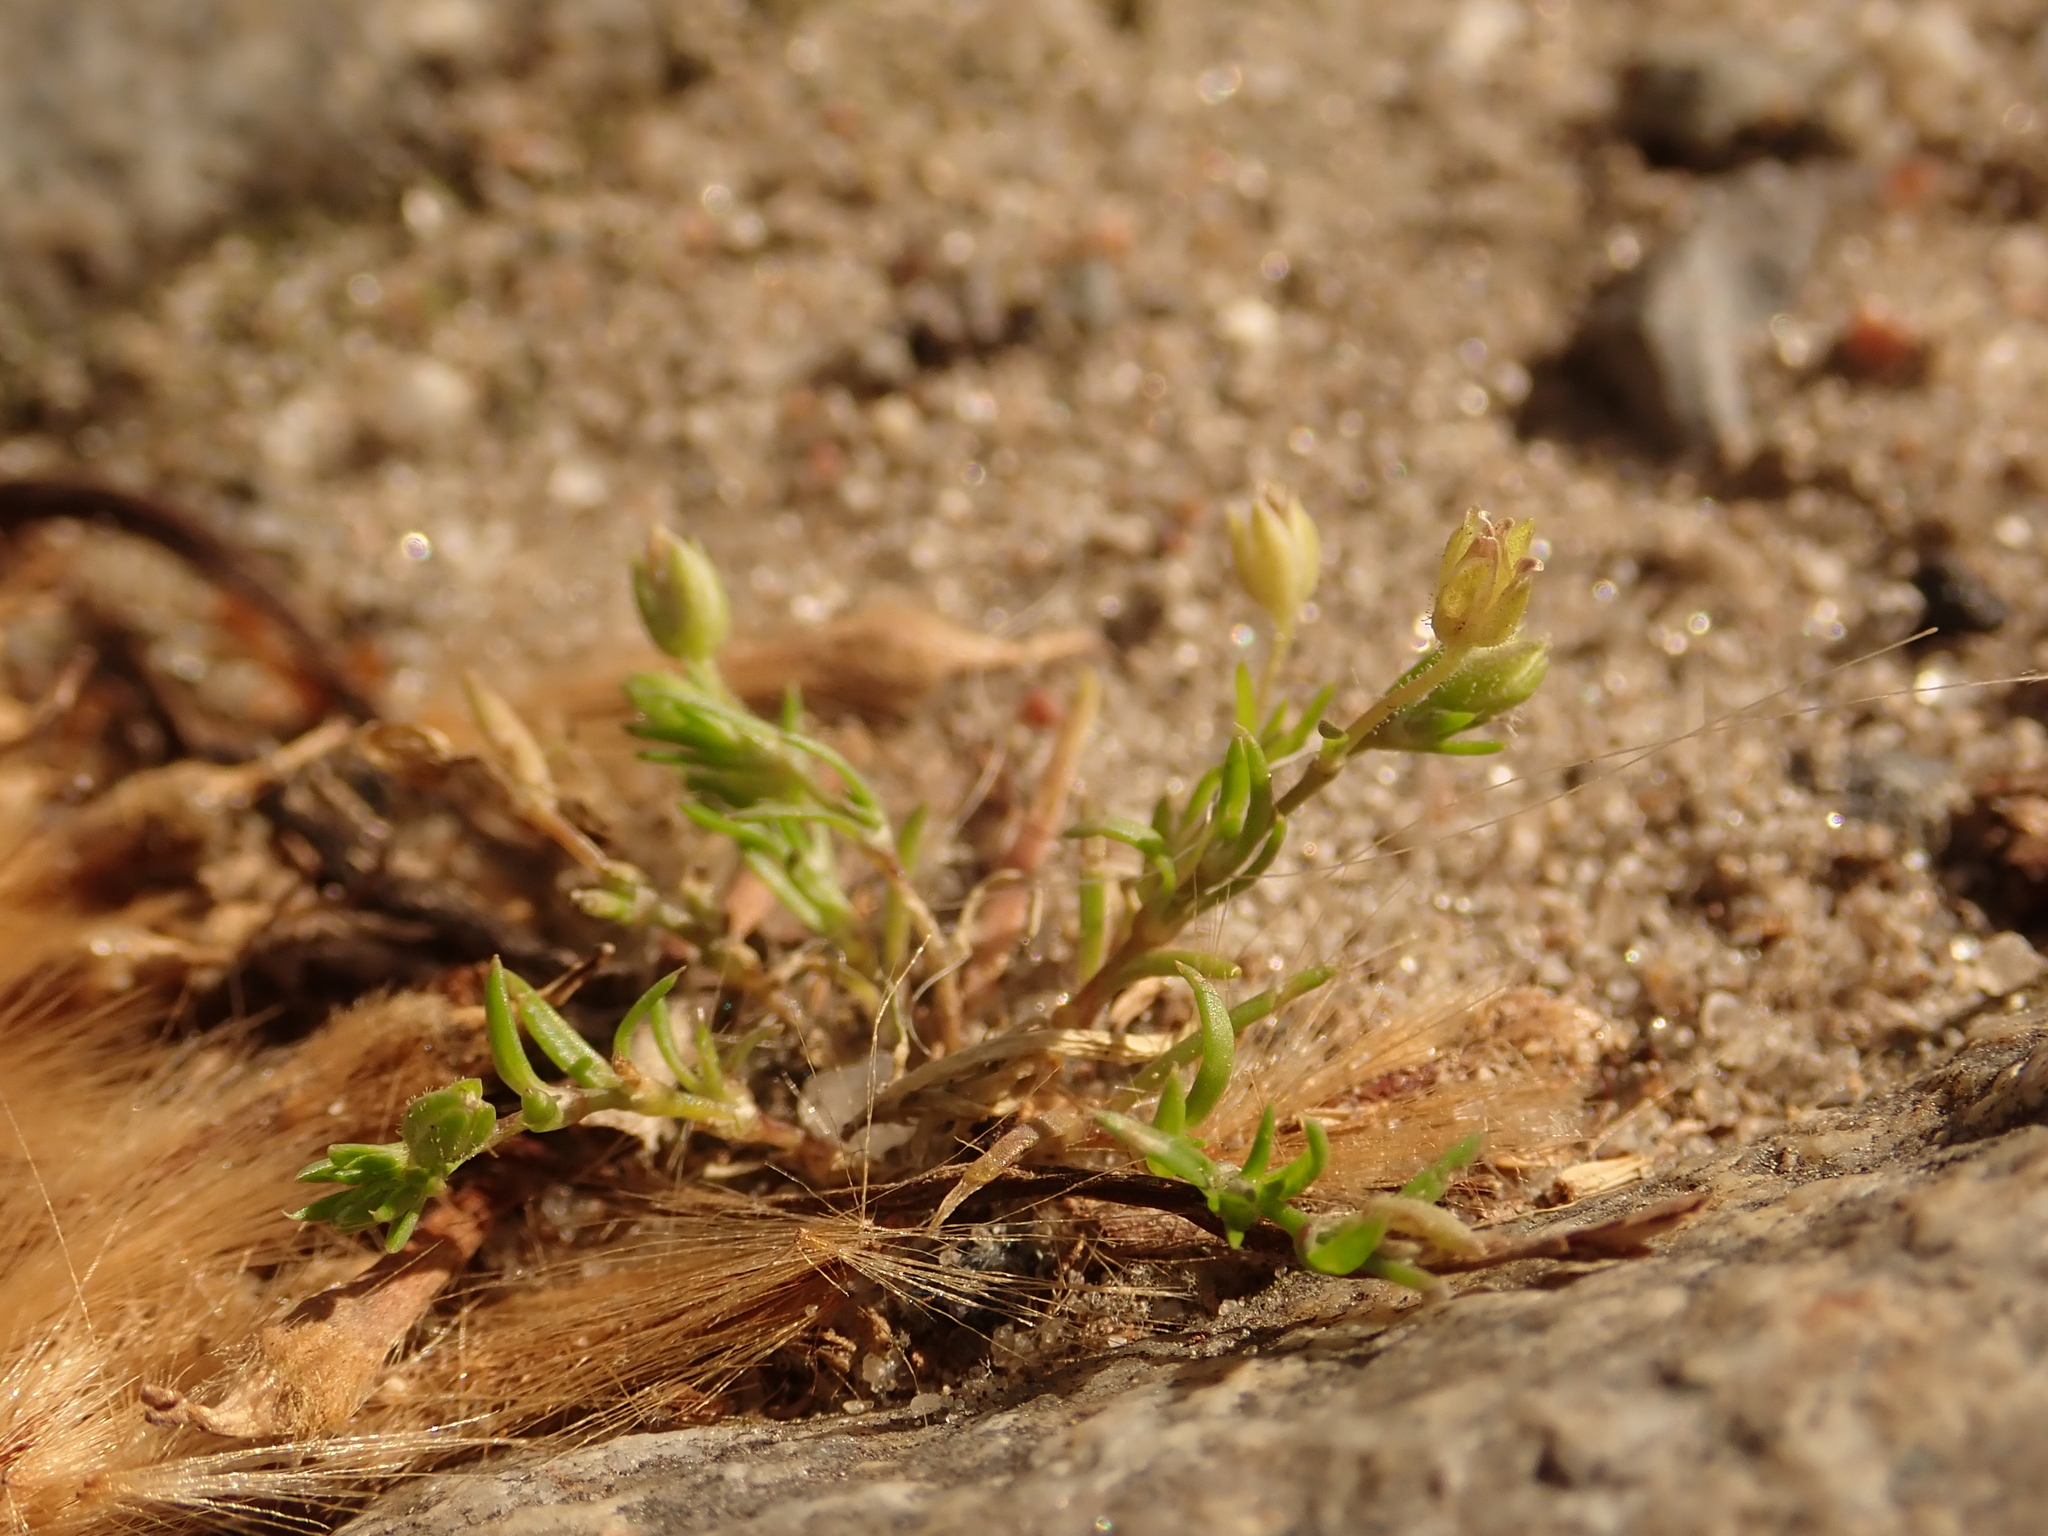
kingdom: Plantae
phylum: Tracheophyta
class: Magnoliopsida
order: Caryophyllales
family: Caryophyllaceae
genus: Sagina
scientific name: Sagina procumbens
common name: Procumbent pearlwort
